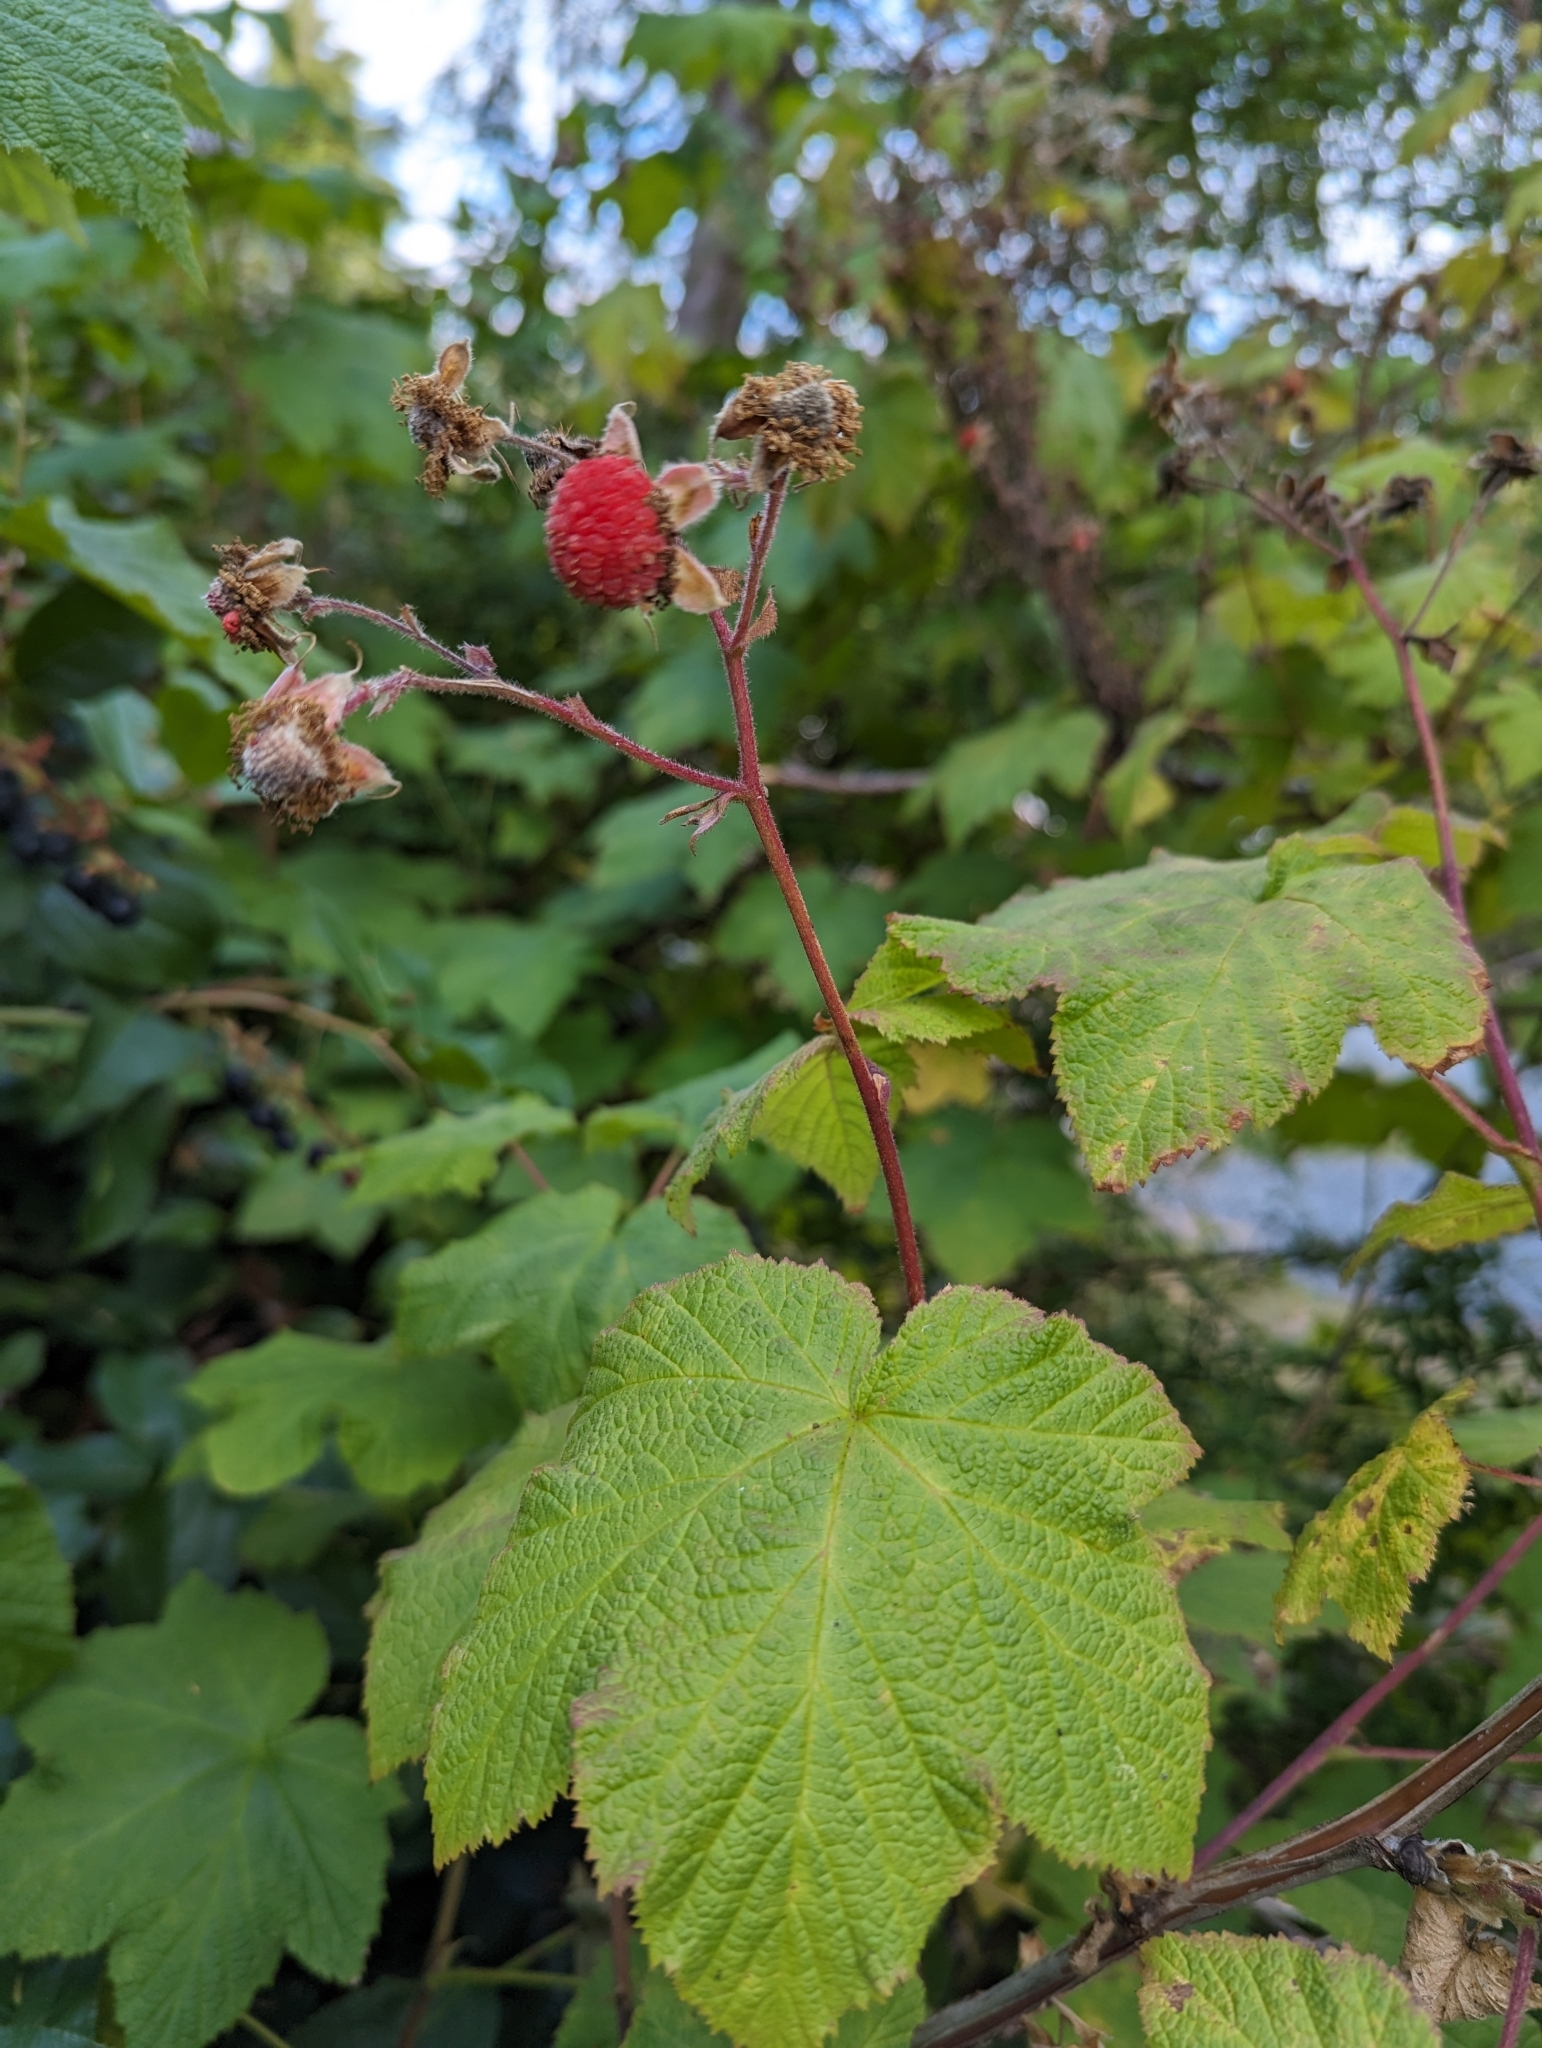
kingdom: Plantae
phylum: Tracheophyta
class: Magnoliopsida
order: Rosales
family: Rosaceae
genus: Rubus
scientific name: Rubus parviflorus
